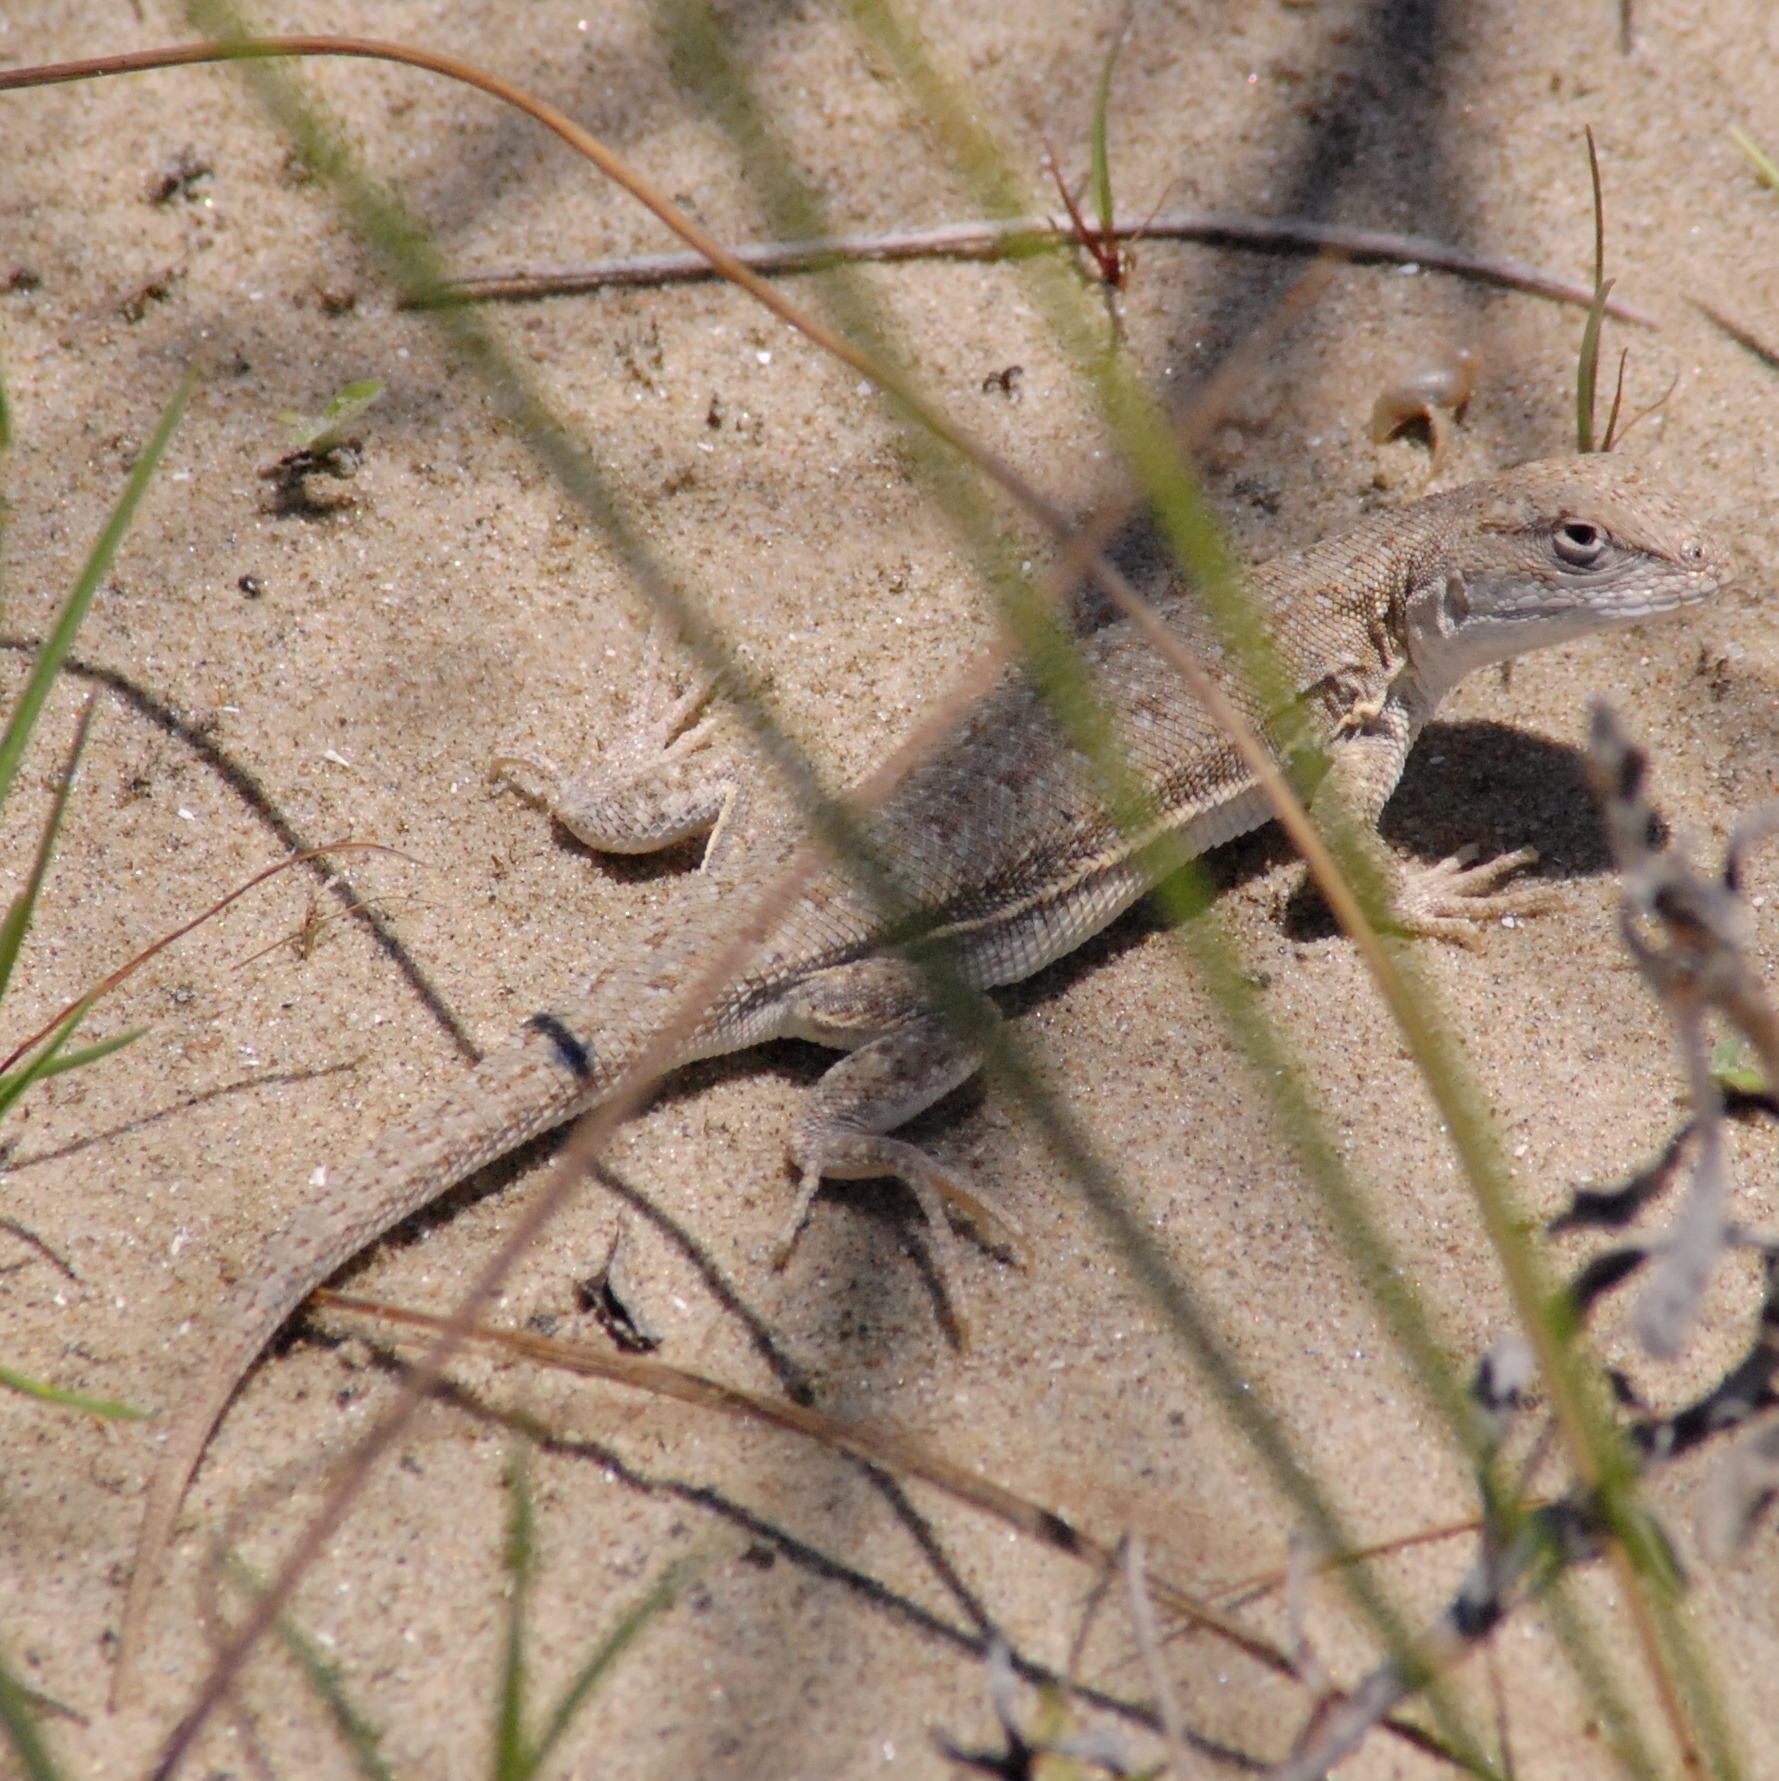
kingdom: Animalia
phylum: Chordata
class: Squamata
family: Liolaemidae
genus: Liolaemus
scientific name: Liolaemus occipitalis
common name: Skull tree iguana
